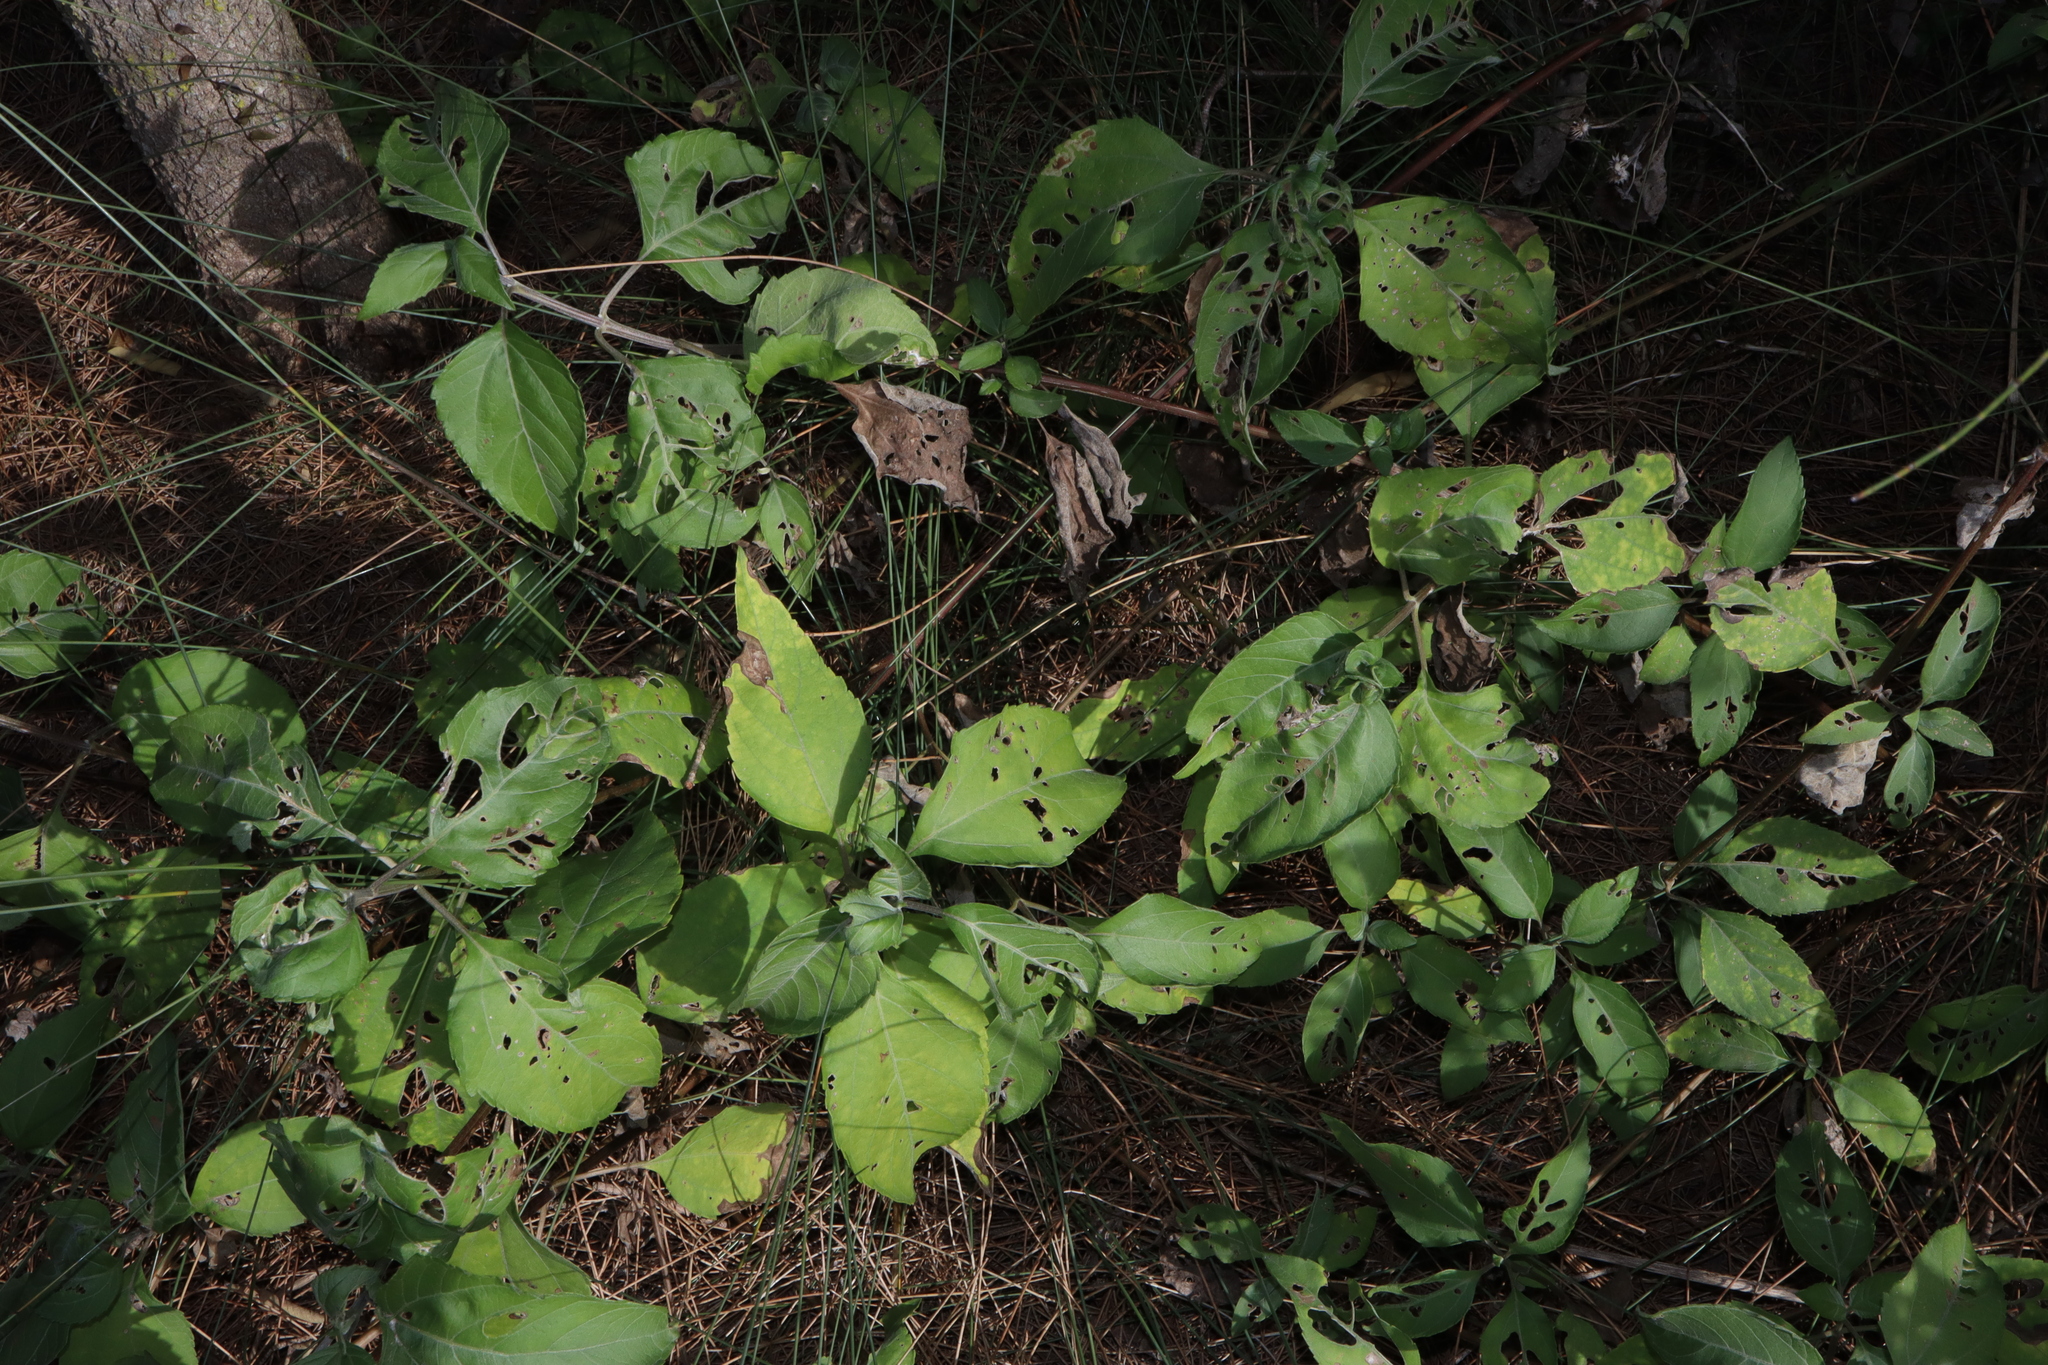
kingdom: Plantae
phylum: Tracheophyta
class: Magnoliopsida
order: Asterales
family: Asteraceae
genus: Wollastonia
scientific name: Wollastonia uniflora
